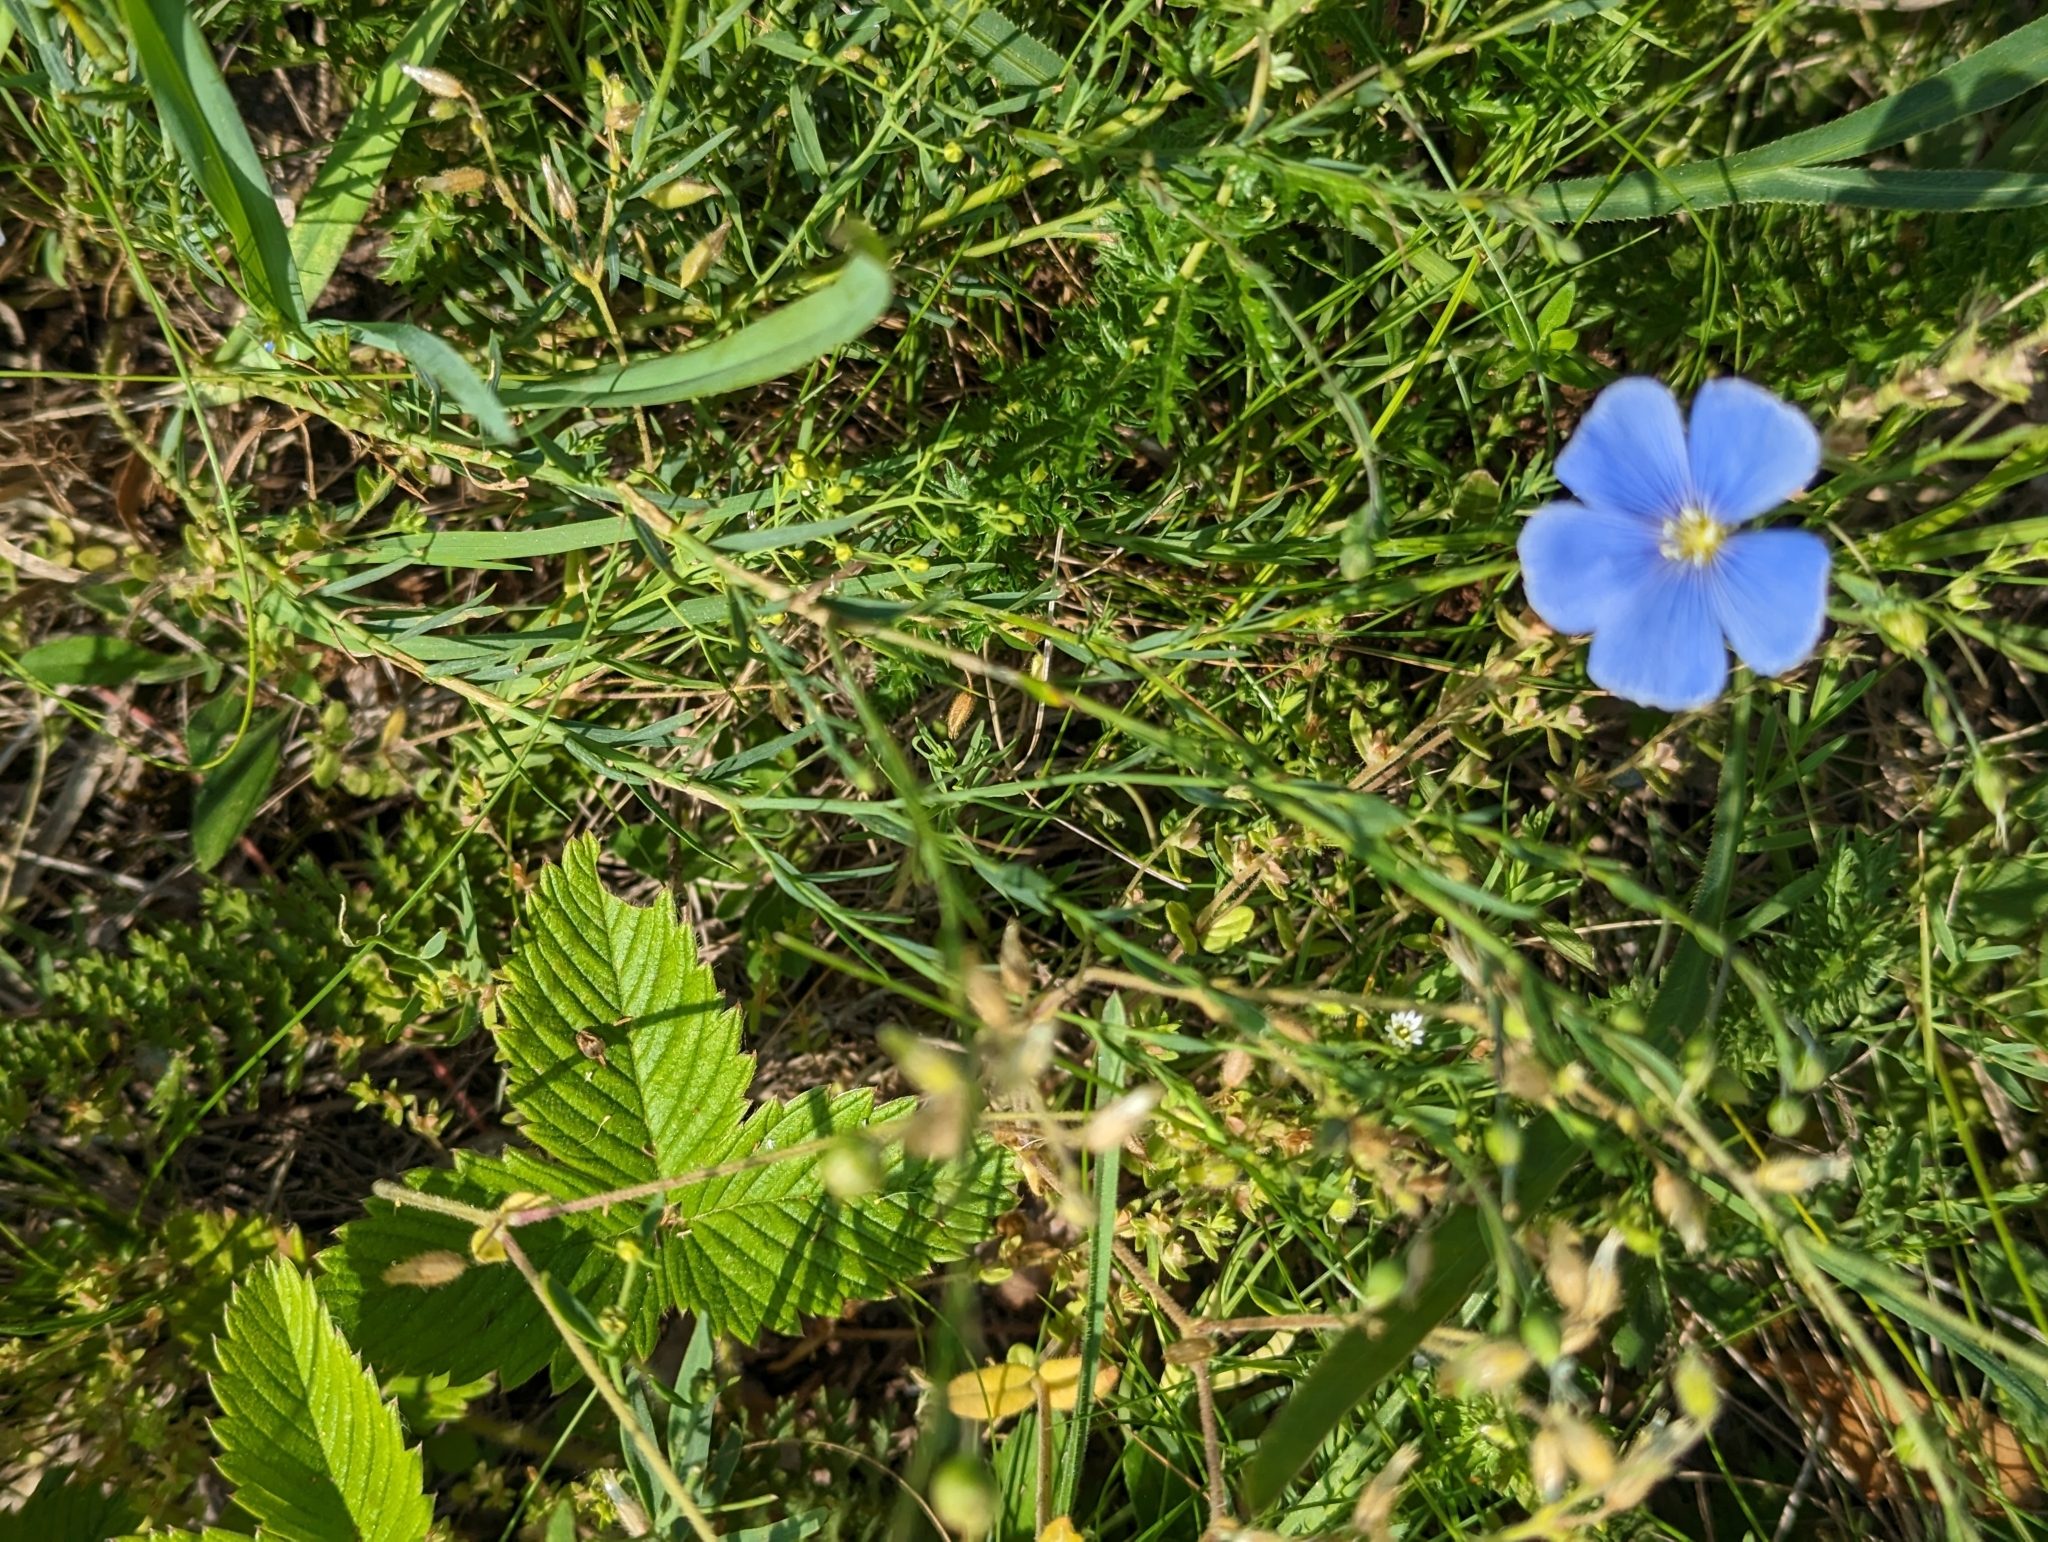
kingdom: Plantae
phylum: Tracheophyta
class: Magnoliopsida
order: Malpighiales
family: Linaceae
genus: Linum
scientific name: Linum austriacum
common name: Austrian flax
